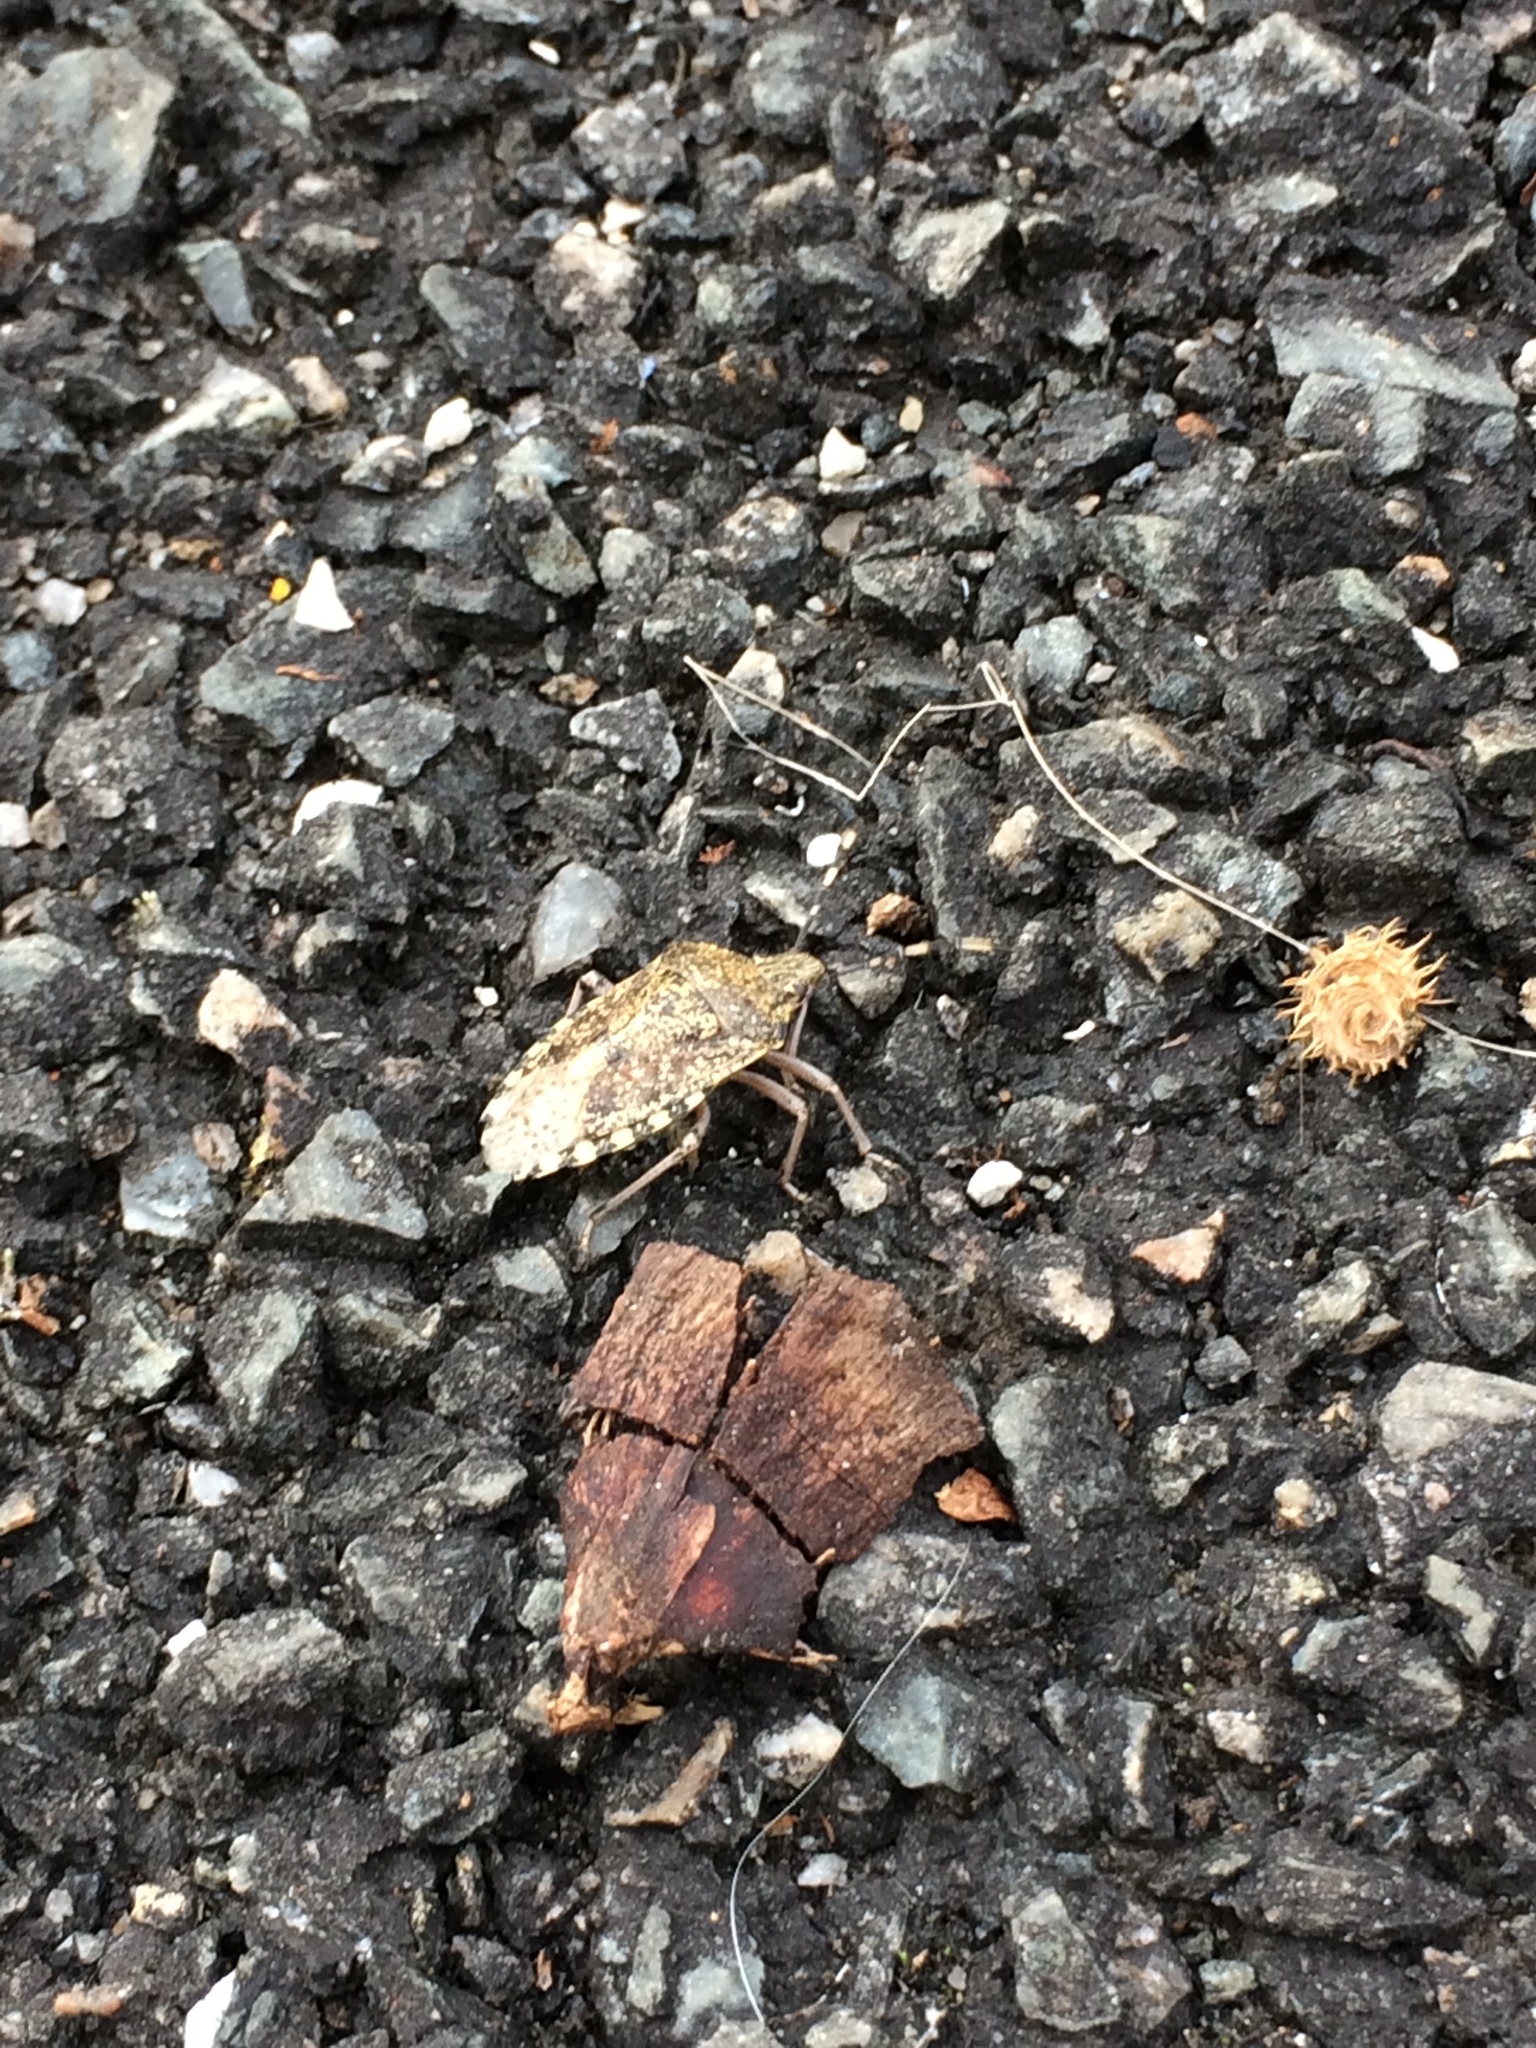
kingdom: Animalia
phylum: Arthropoda
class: Insecta
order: Hemiptera
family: Pentatomidae
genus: Rhaphigaster
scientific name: Rhaphigaster nebulosa
